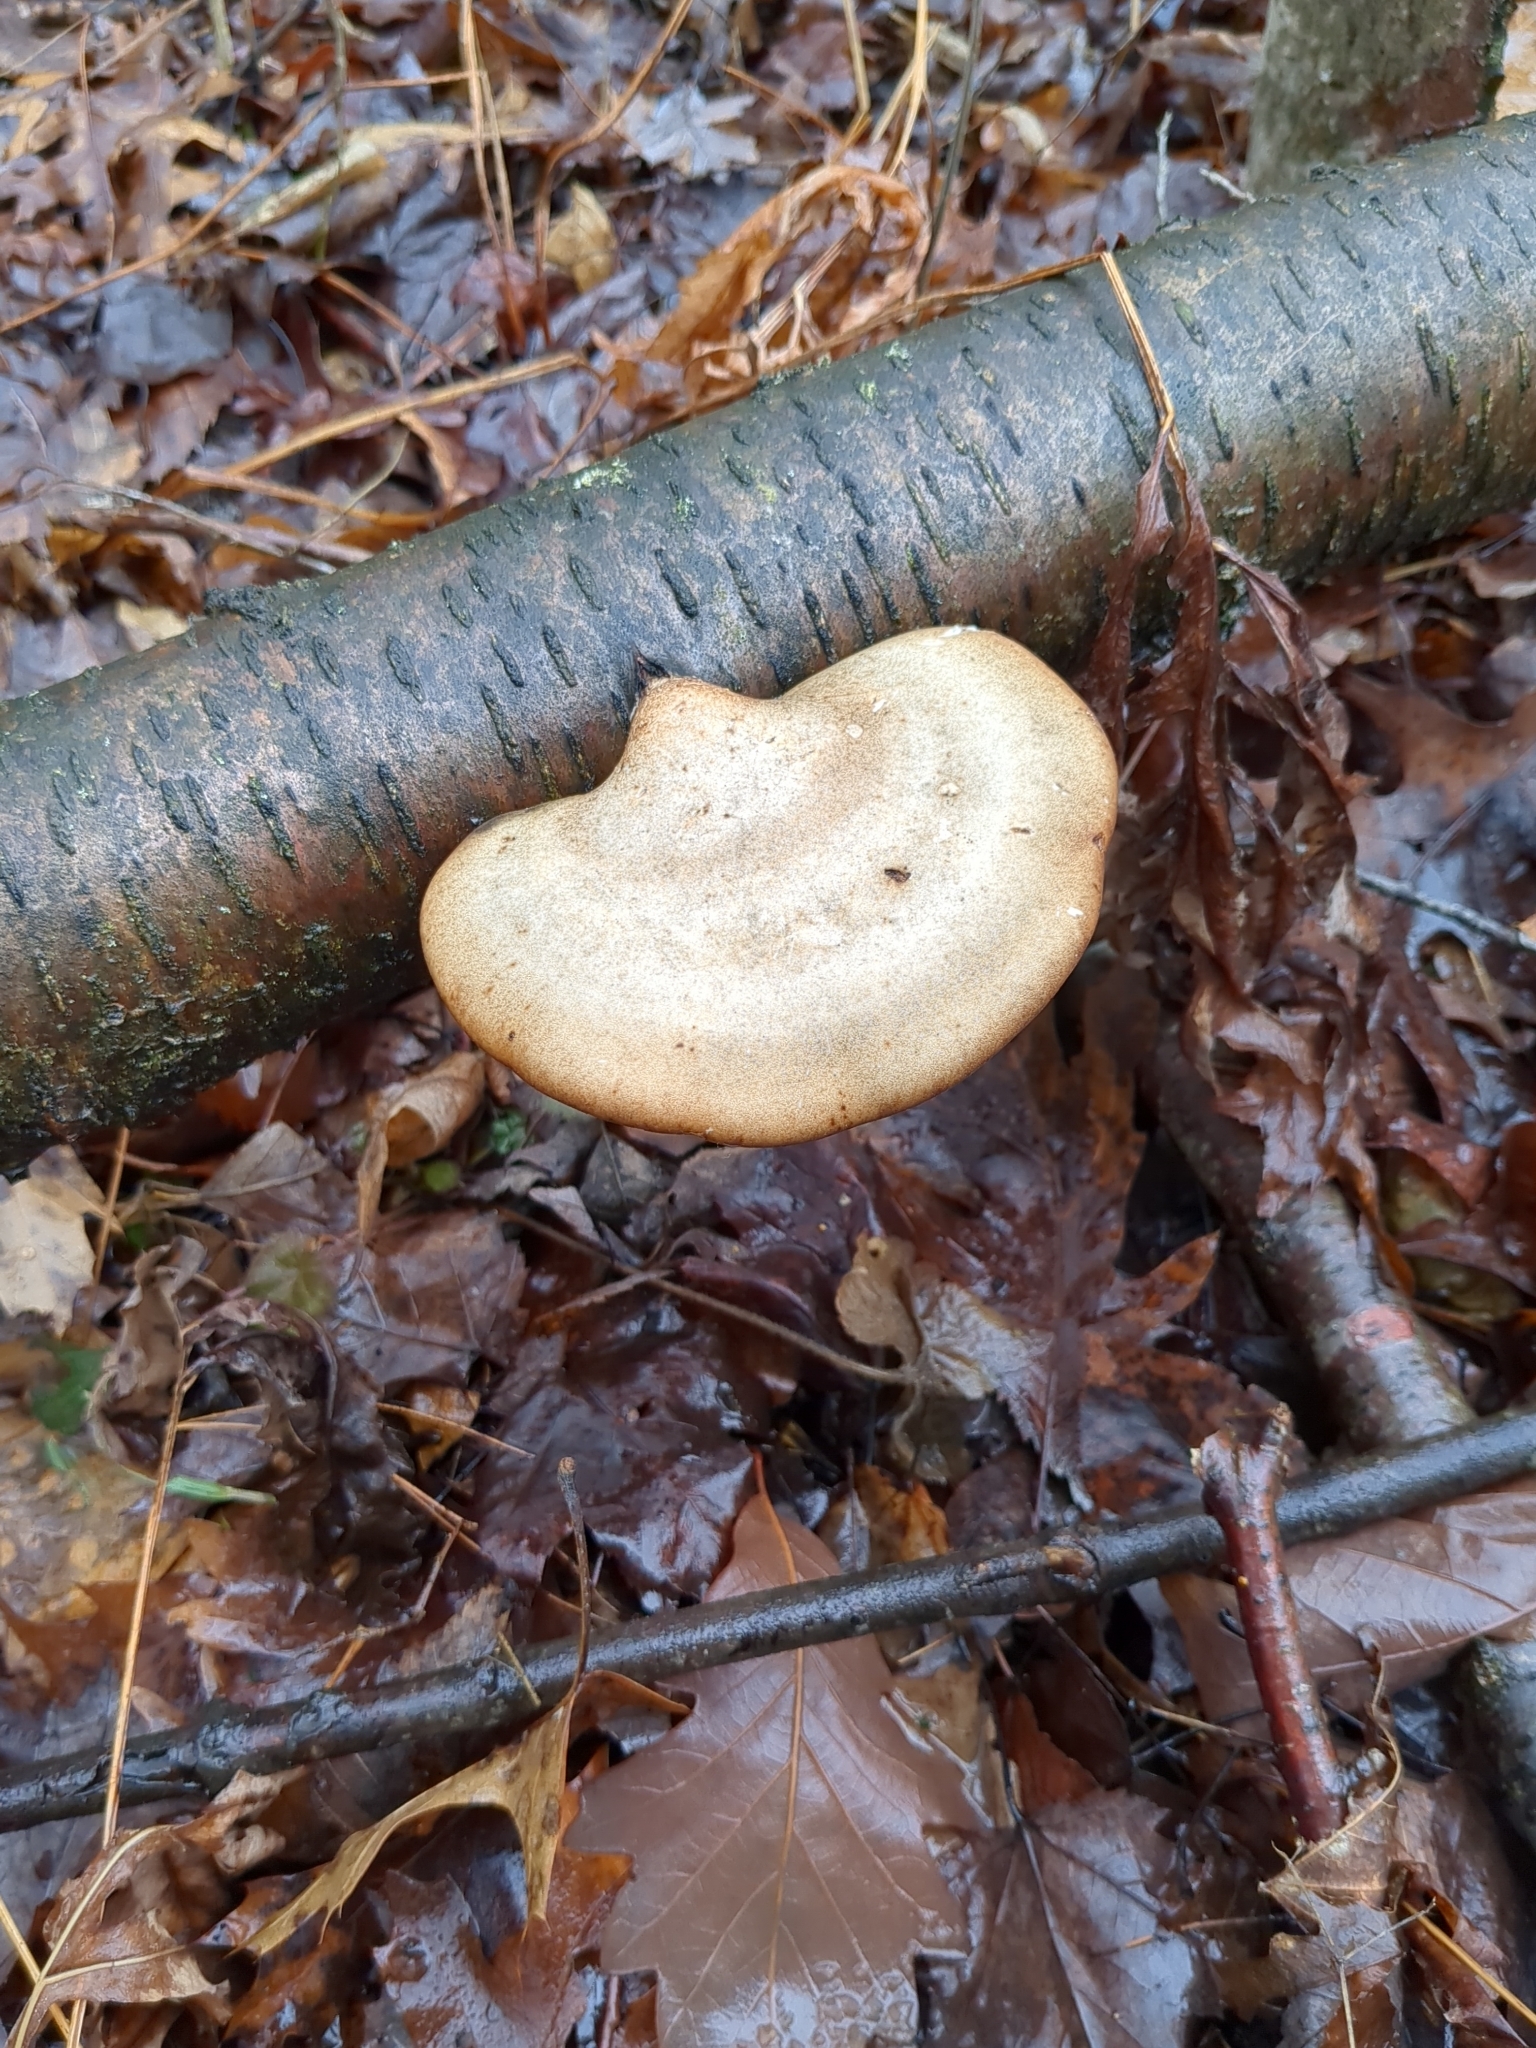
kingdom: Fungi
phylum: Basidiomycota
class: Agaricomycetes
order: Polyporales
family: Fomitopsidaceae
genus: Fomitopsis
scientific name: Fomitopsis betulina
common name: Birch polypore
